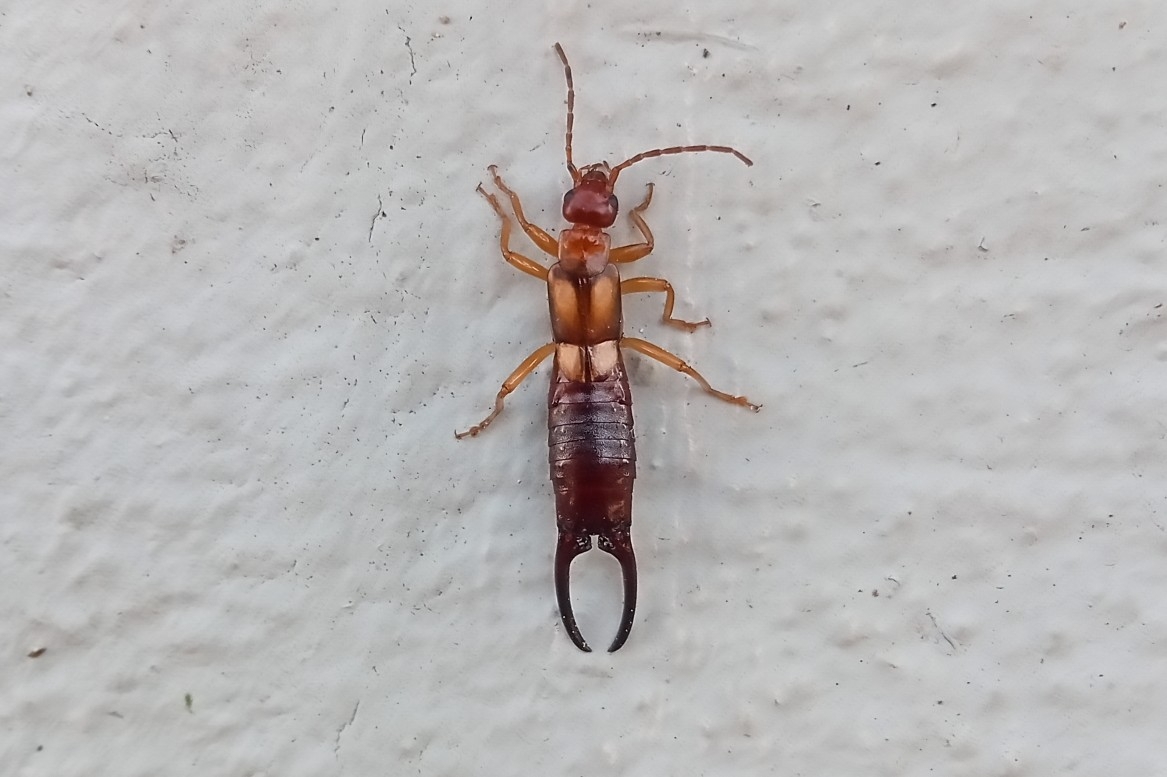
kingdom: Animalia
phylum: Arthropoda
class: Insecta
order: Dermaptera
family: Forficulidae
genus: Forficula
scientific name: Forficula smyrnensis
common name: Smyrna earwig
